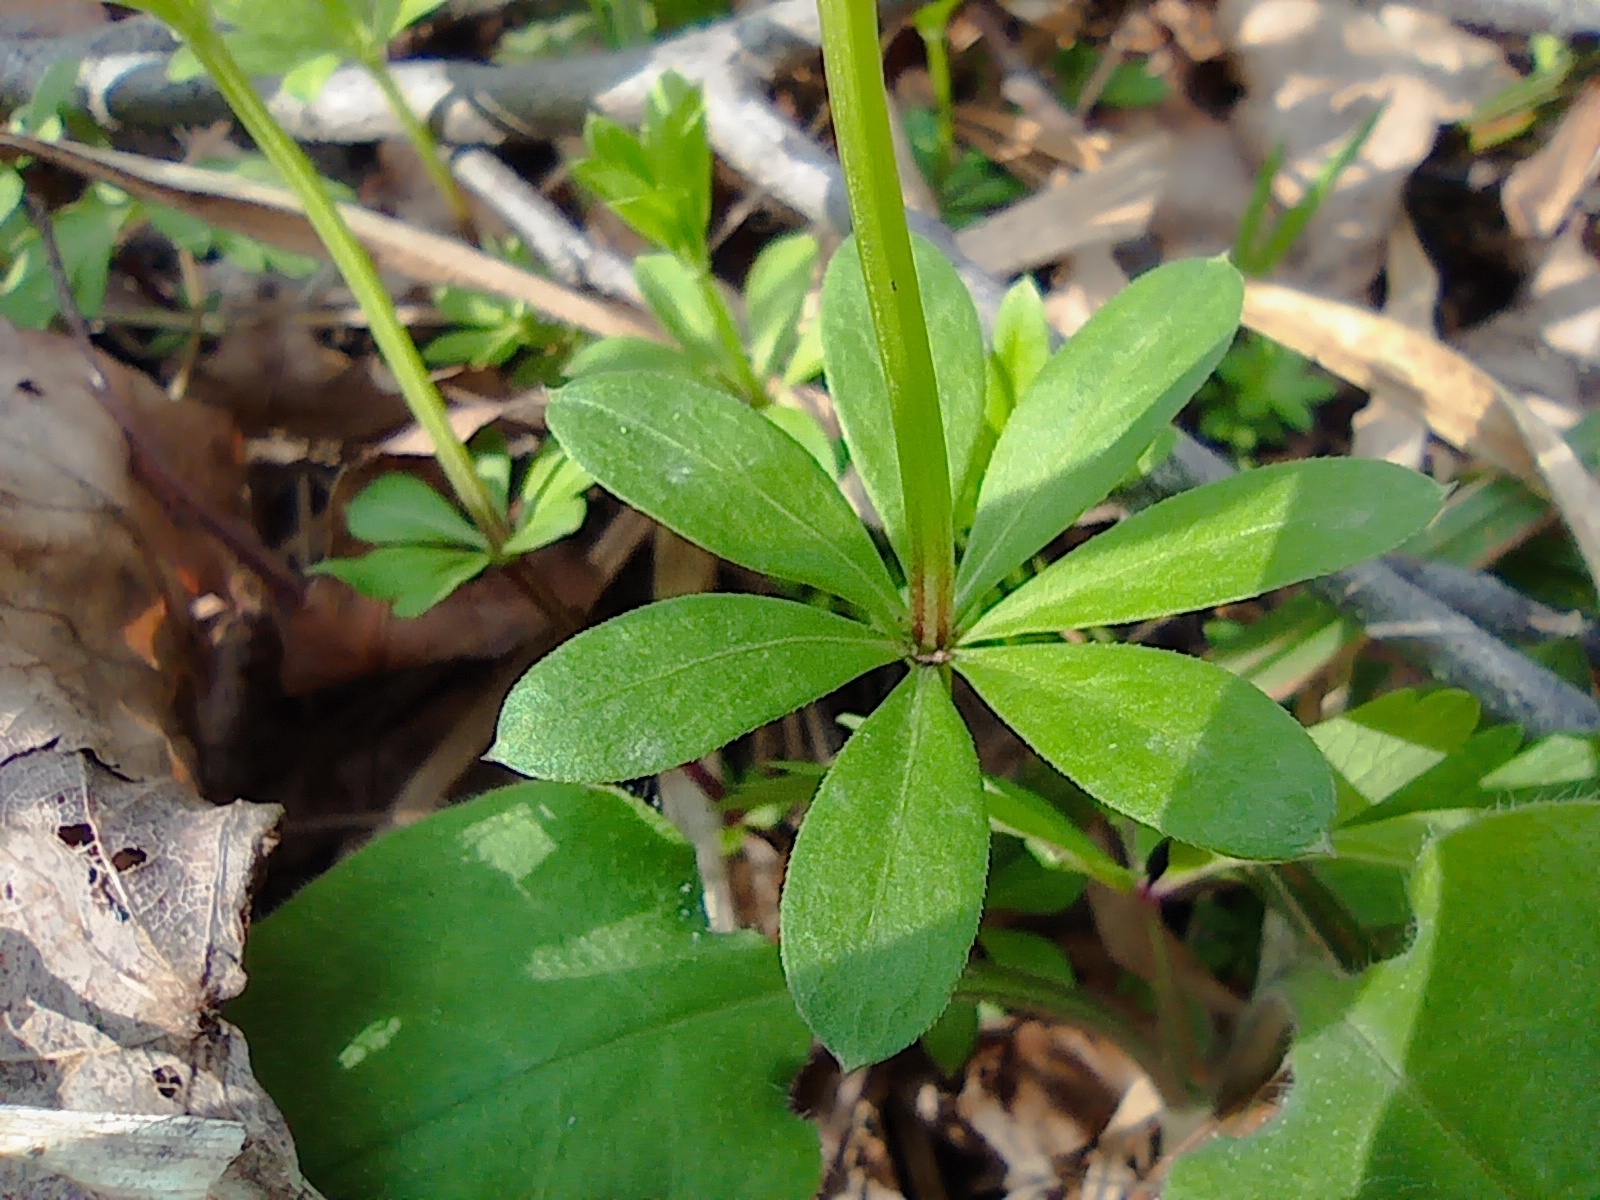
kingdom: Plantae
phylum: Tracheophyta
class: Magnoliopsida
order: Gentianales
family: Rubiaceae
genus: Galium
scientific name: Galium odoratum
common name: Sweet woodruff
